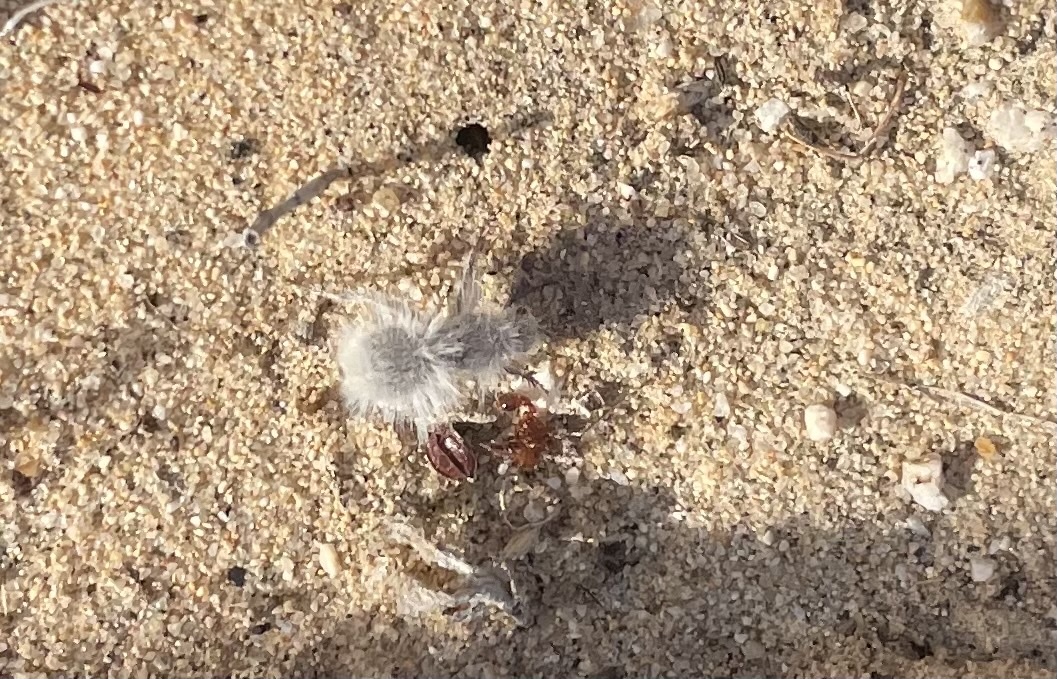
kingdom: Animalia
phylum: Arthropoda
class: Insecta
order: Hymenoptera
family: Mutillidae
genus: Dasymutilla
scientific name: Dasymutilla gloriosa
